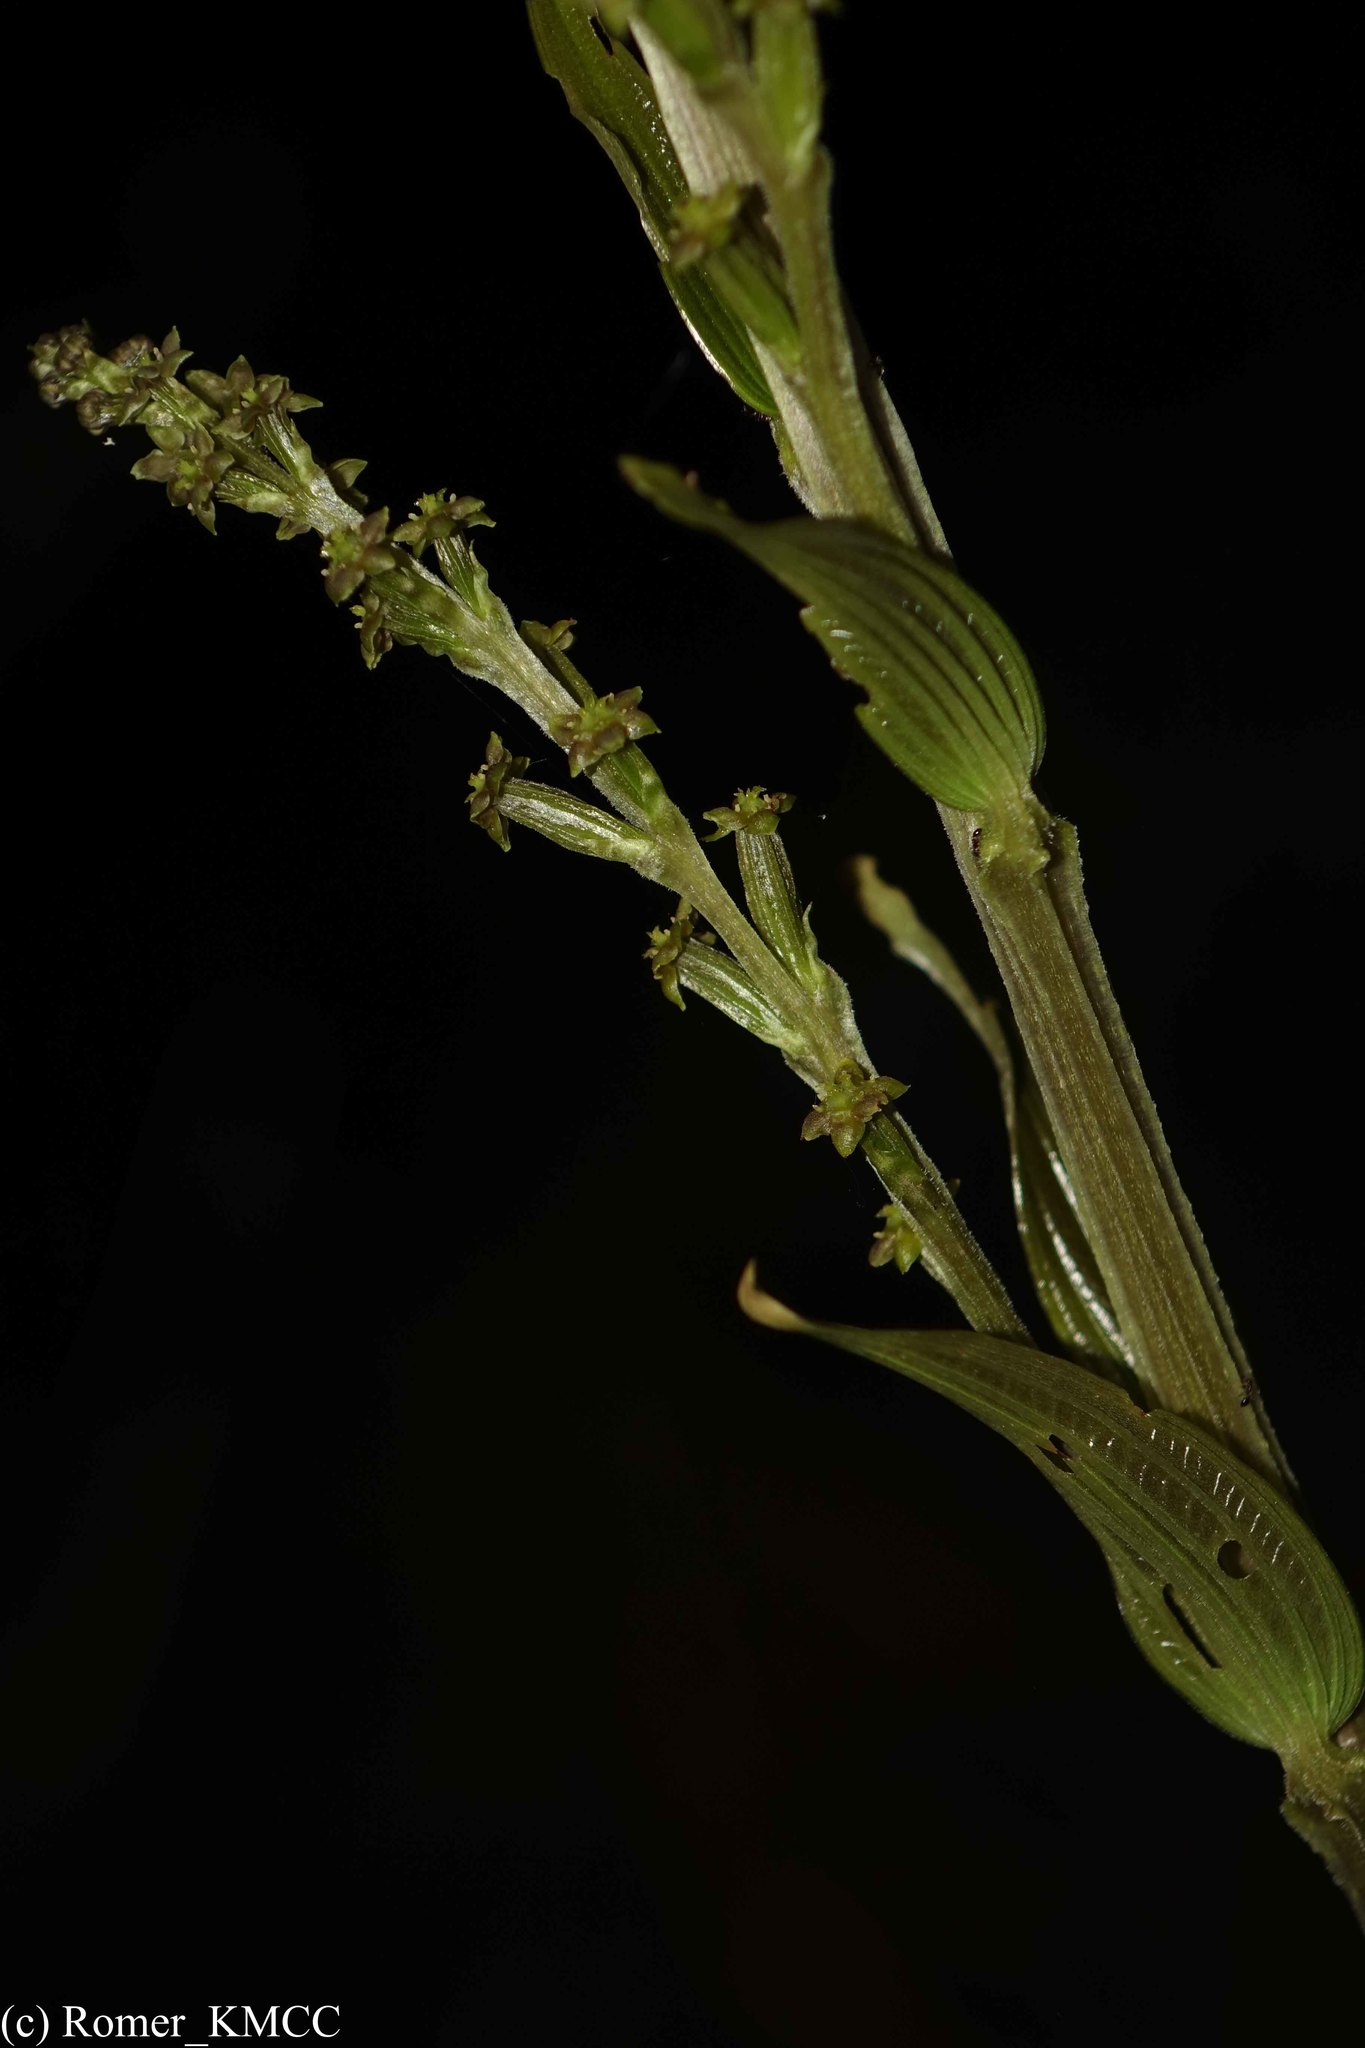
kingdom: Plantae
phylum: Tracheophyta
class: Liliopsida
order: Dioscoreales
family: Dioscoreaceae
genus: Dioscorea
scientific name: Dioscorea hexagona
